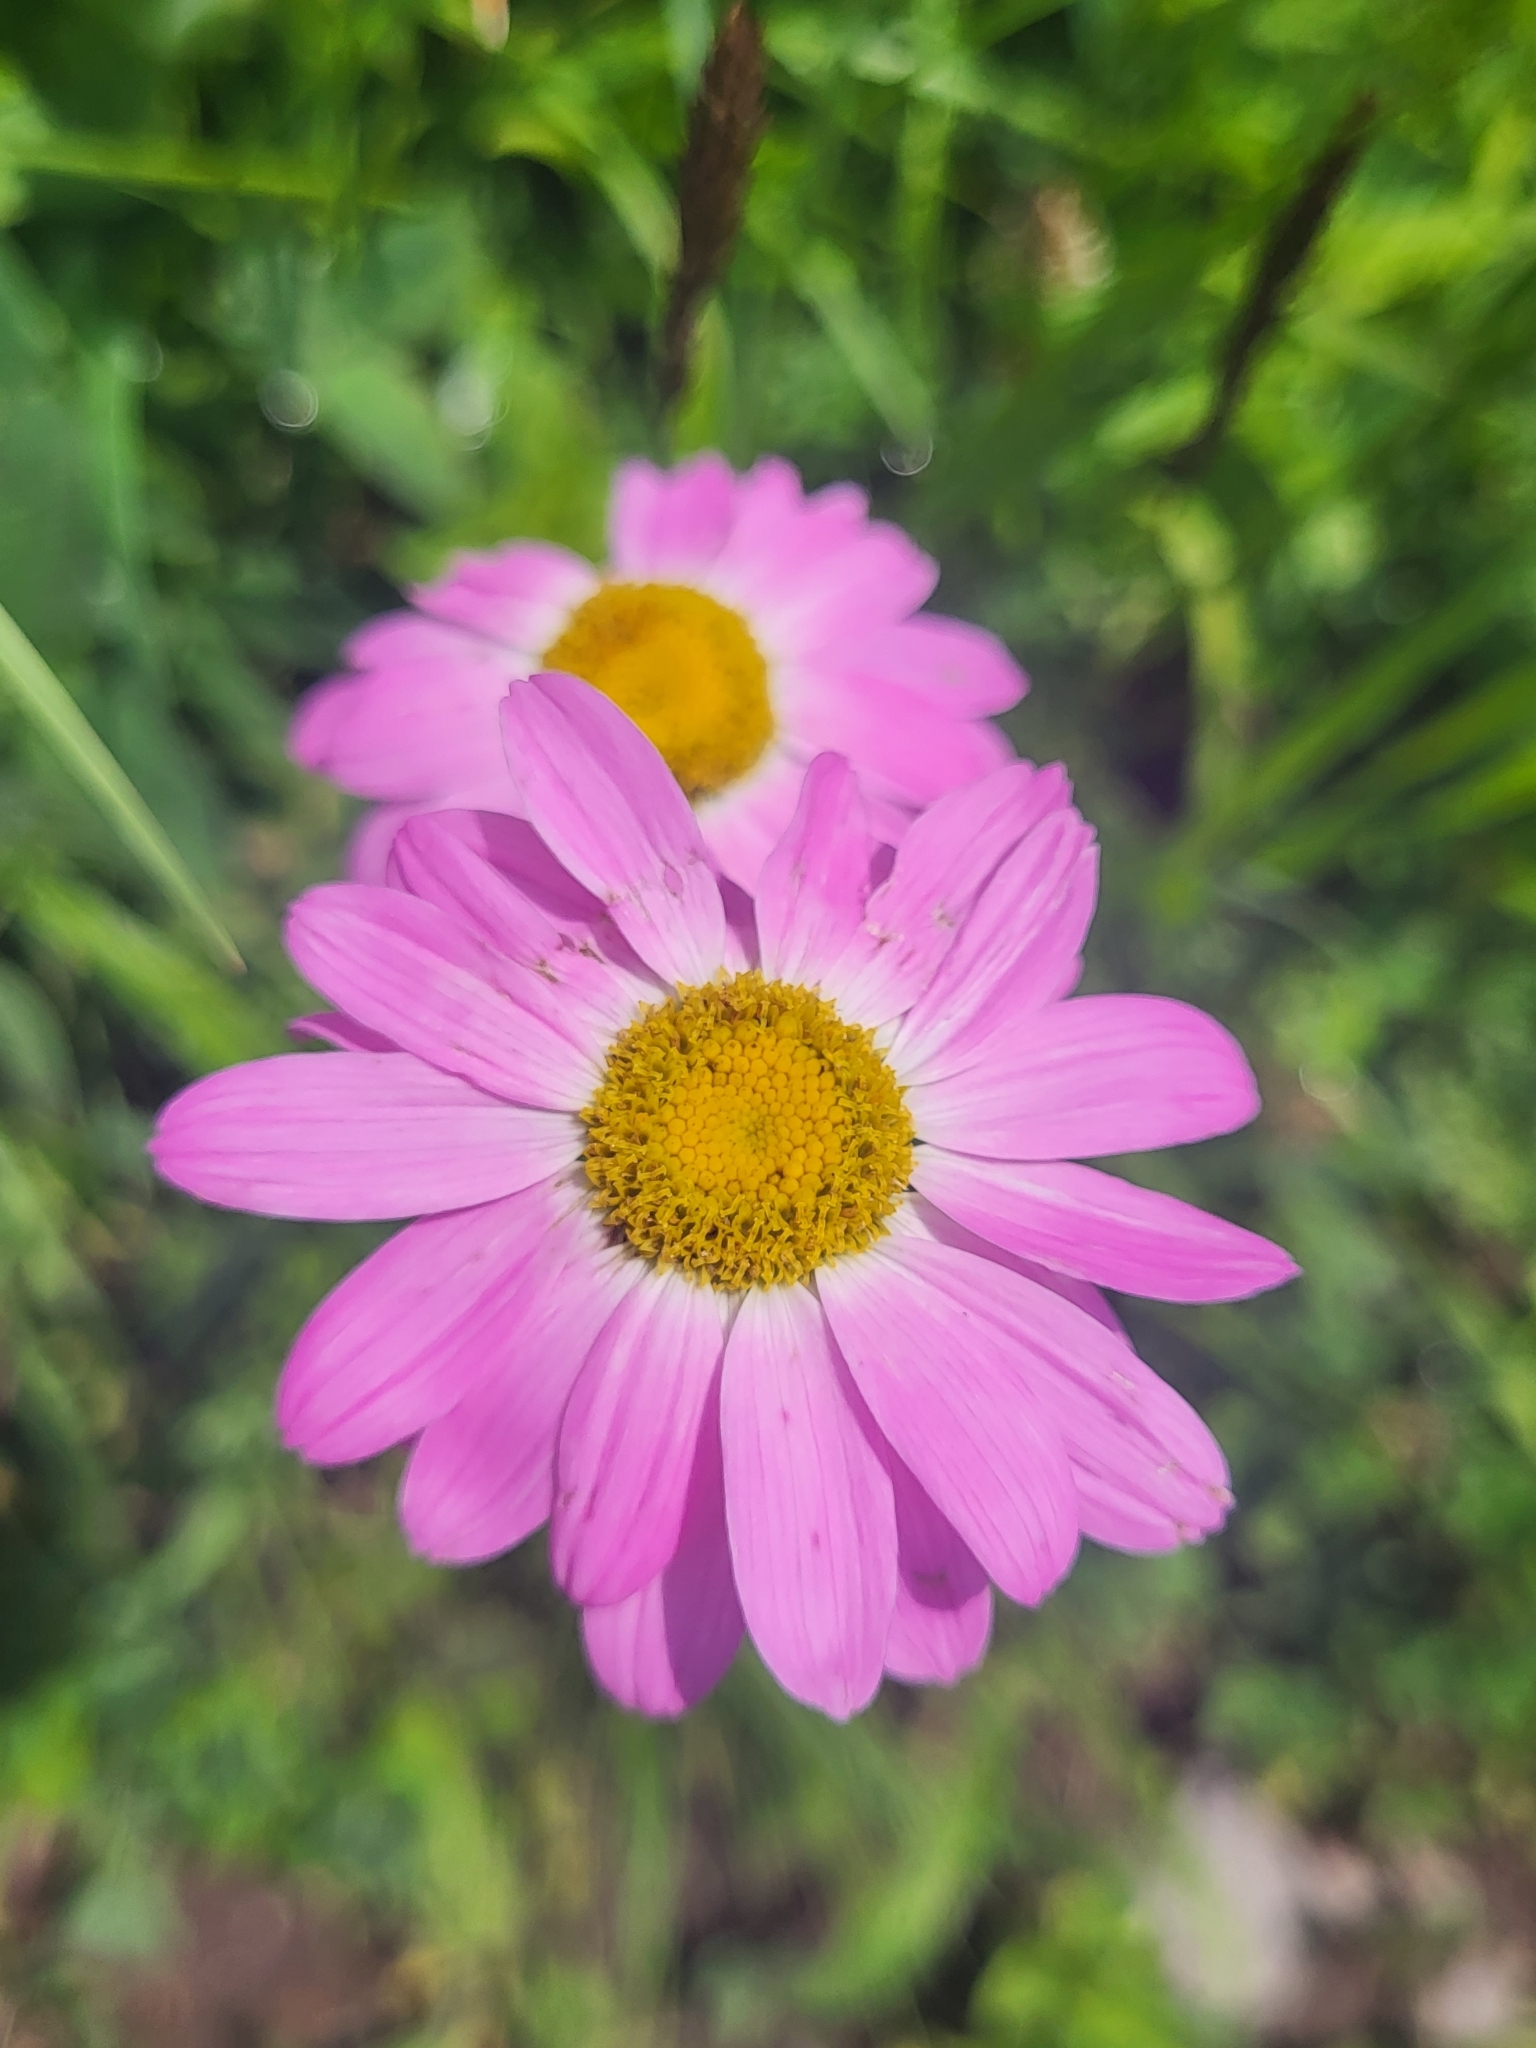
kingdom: Plantae
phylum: Tracheophyta
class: Magnoliopsida
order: Asterales
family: Asteraceae
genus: Tanacetum
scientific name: Tanacetum coccineum
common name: Pyrethum daisy
